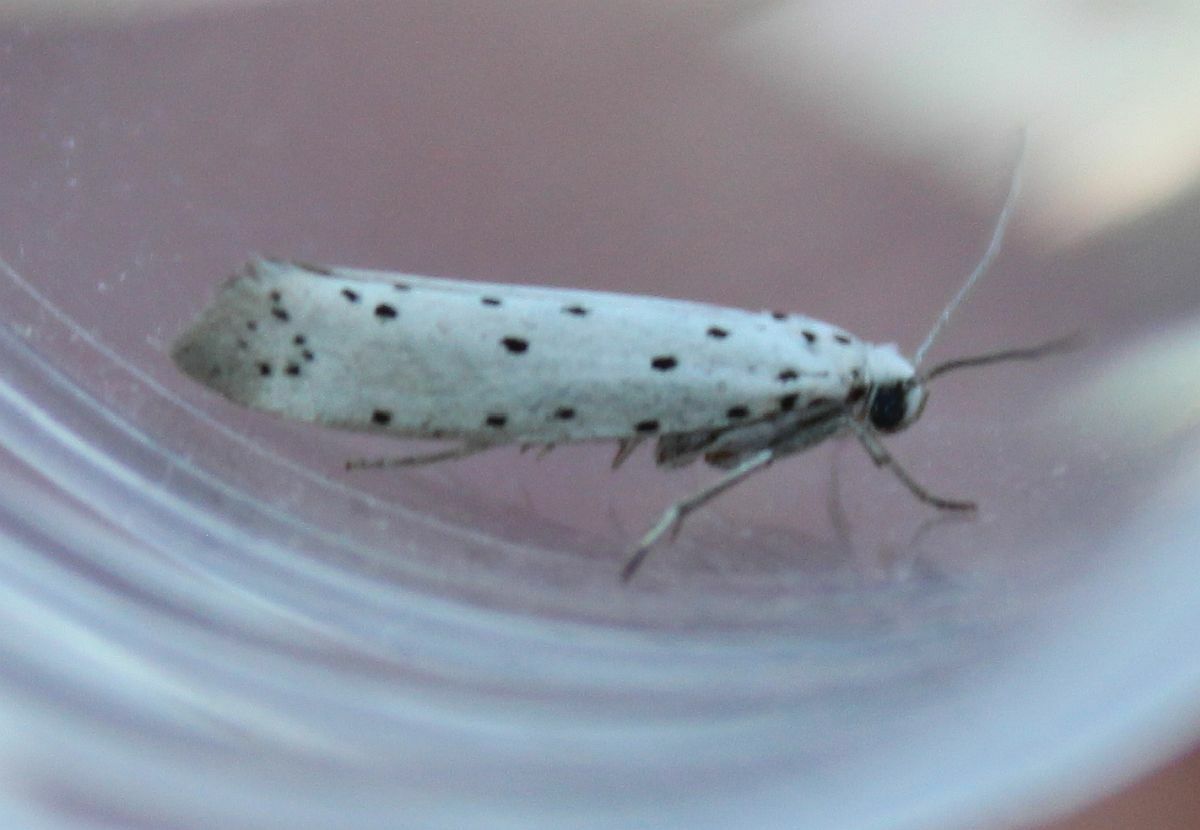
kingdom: Animalia
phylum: Arthropoda
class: Insecta
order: Lepidoptera
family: Yponomeutidae
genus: Yponomeuta
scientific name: Yponomeuta
